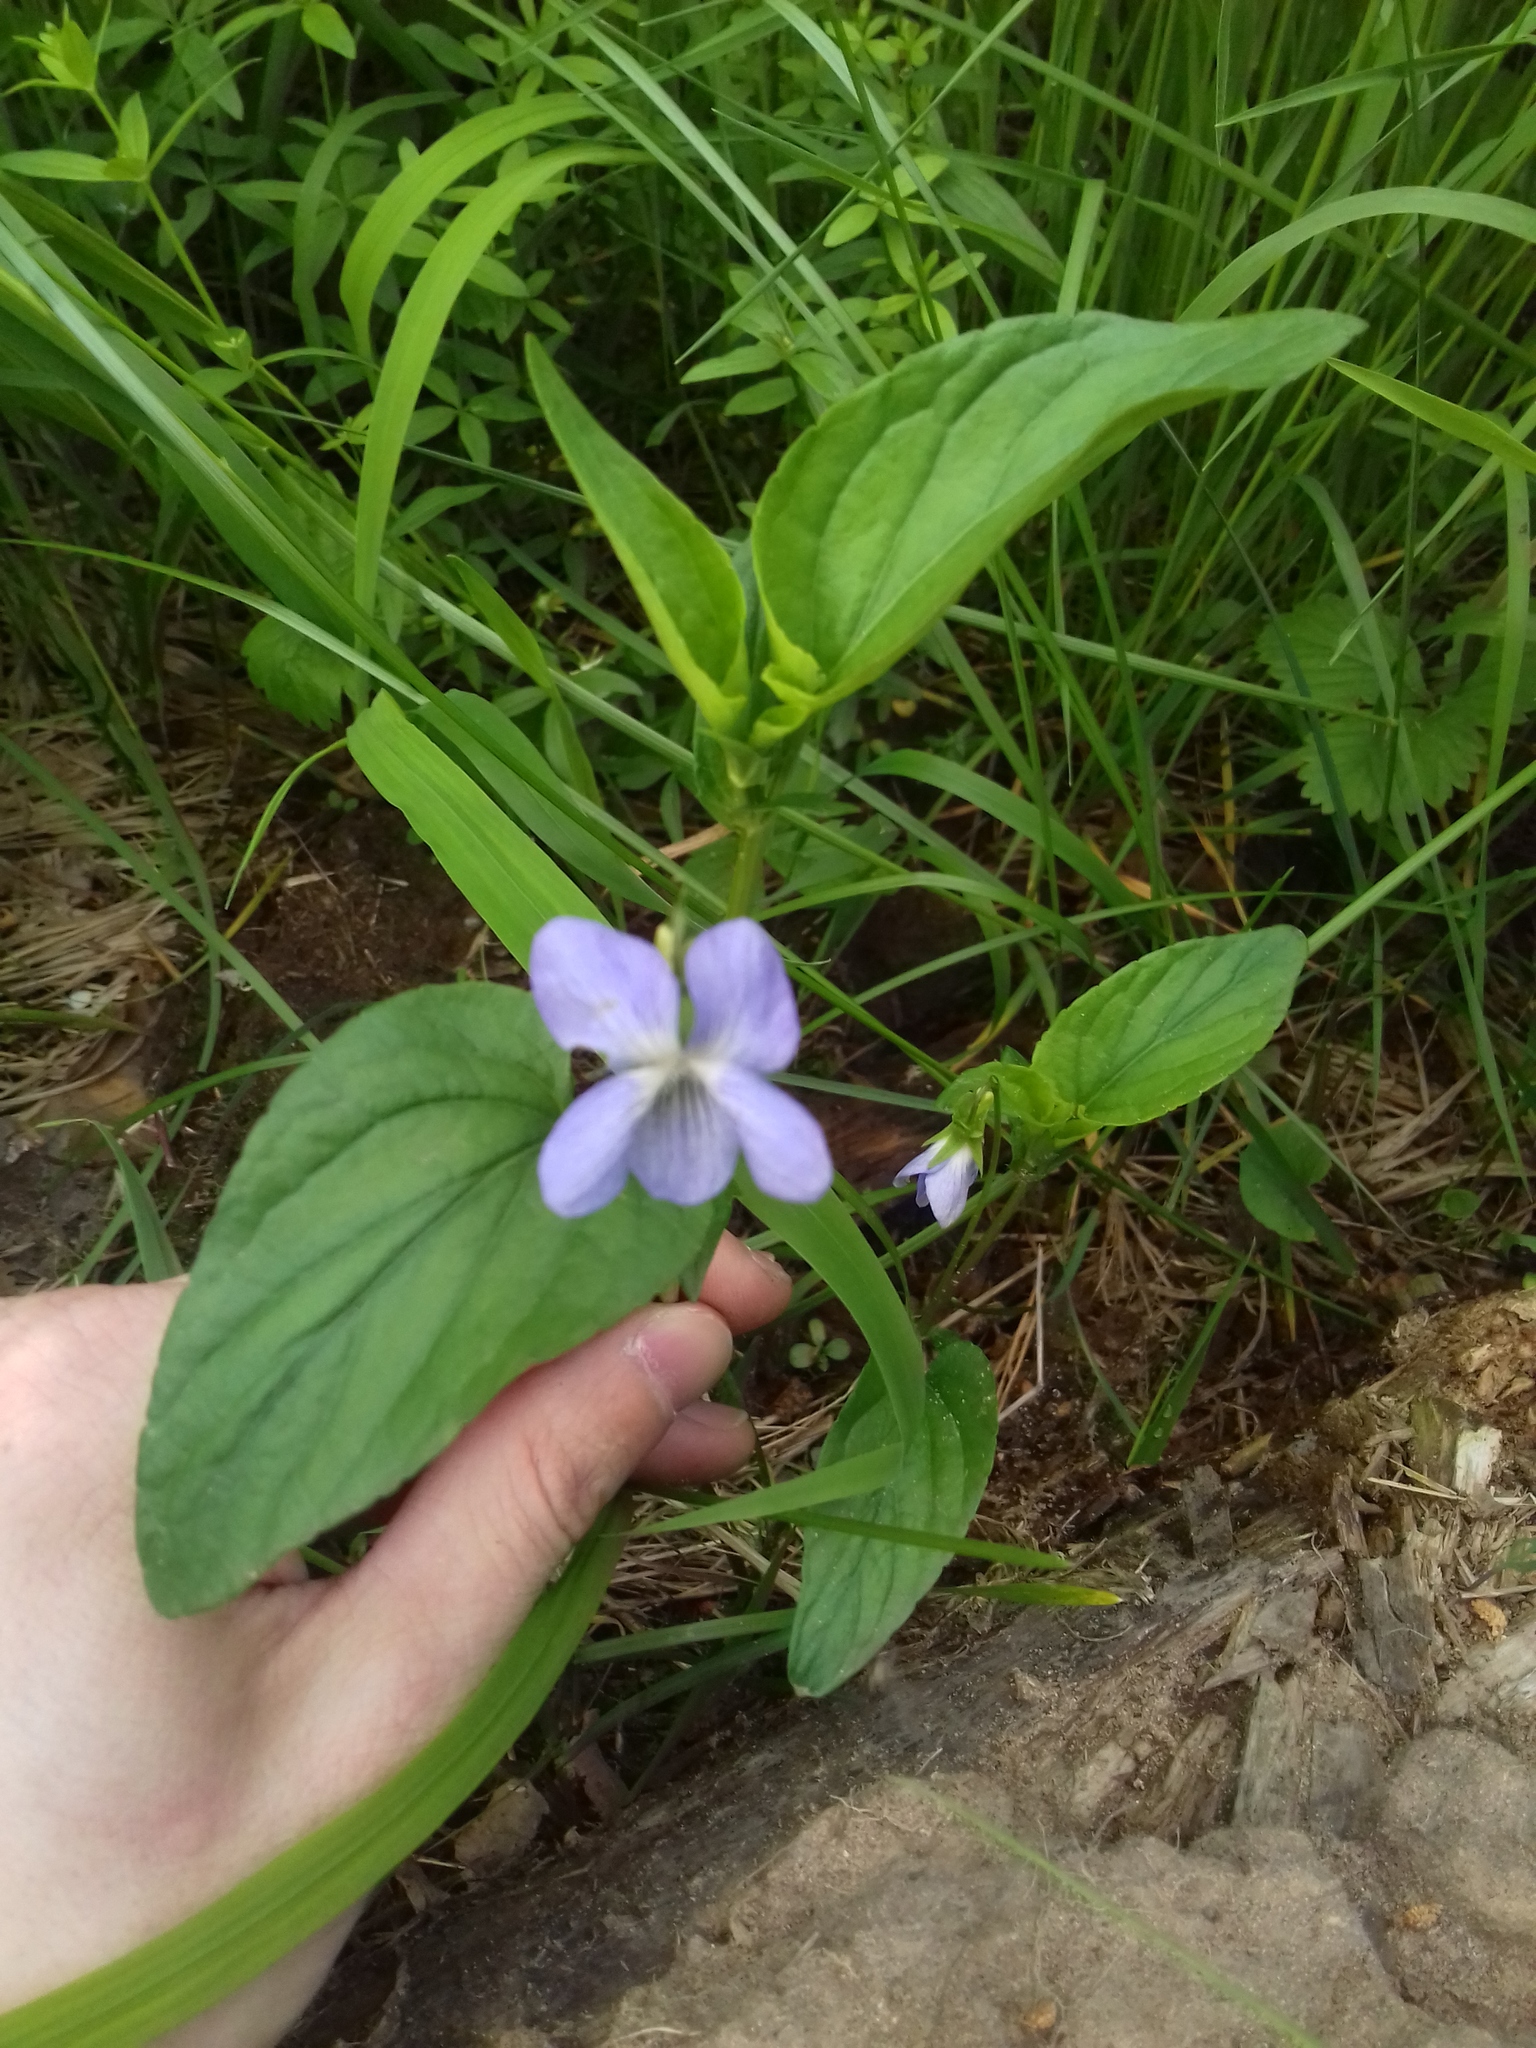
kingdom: Plantae
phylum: Tracheophyta
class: Magnoliopsida
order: Malpighiales
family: Violaceae
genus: Viola
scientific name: Viola
